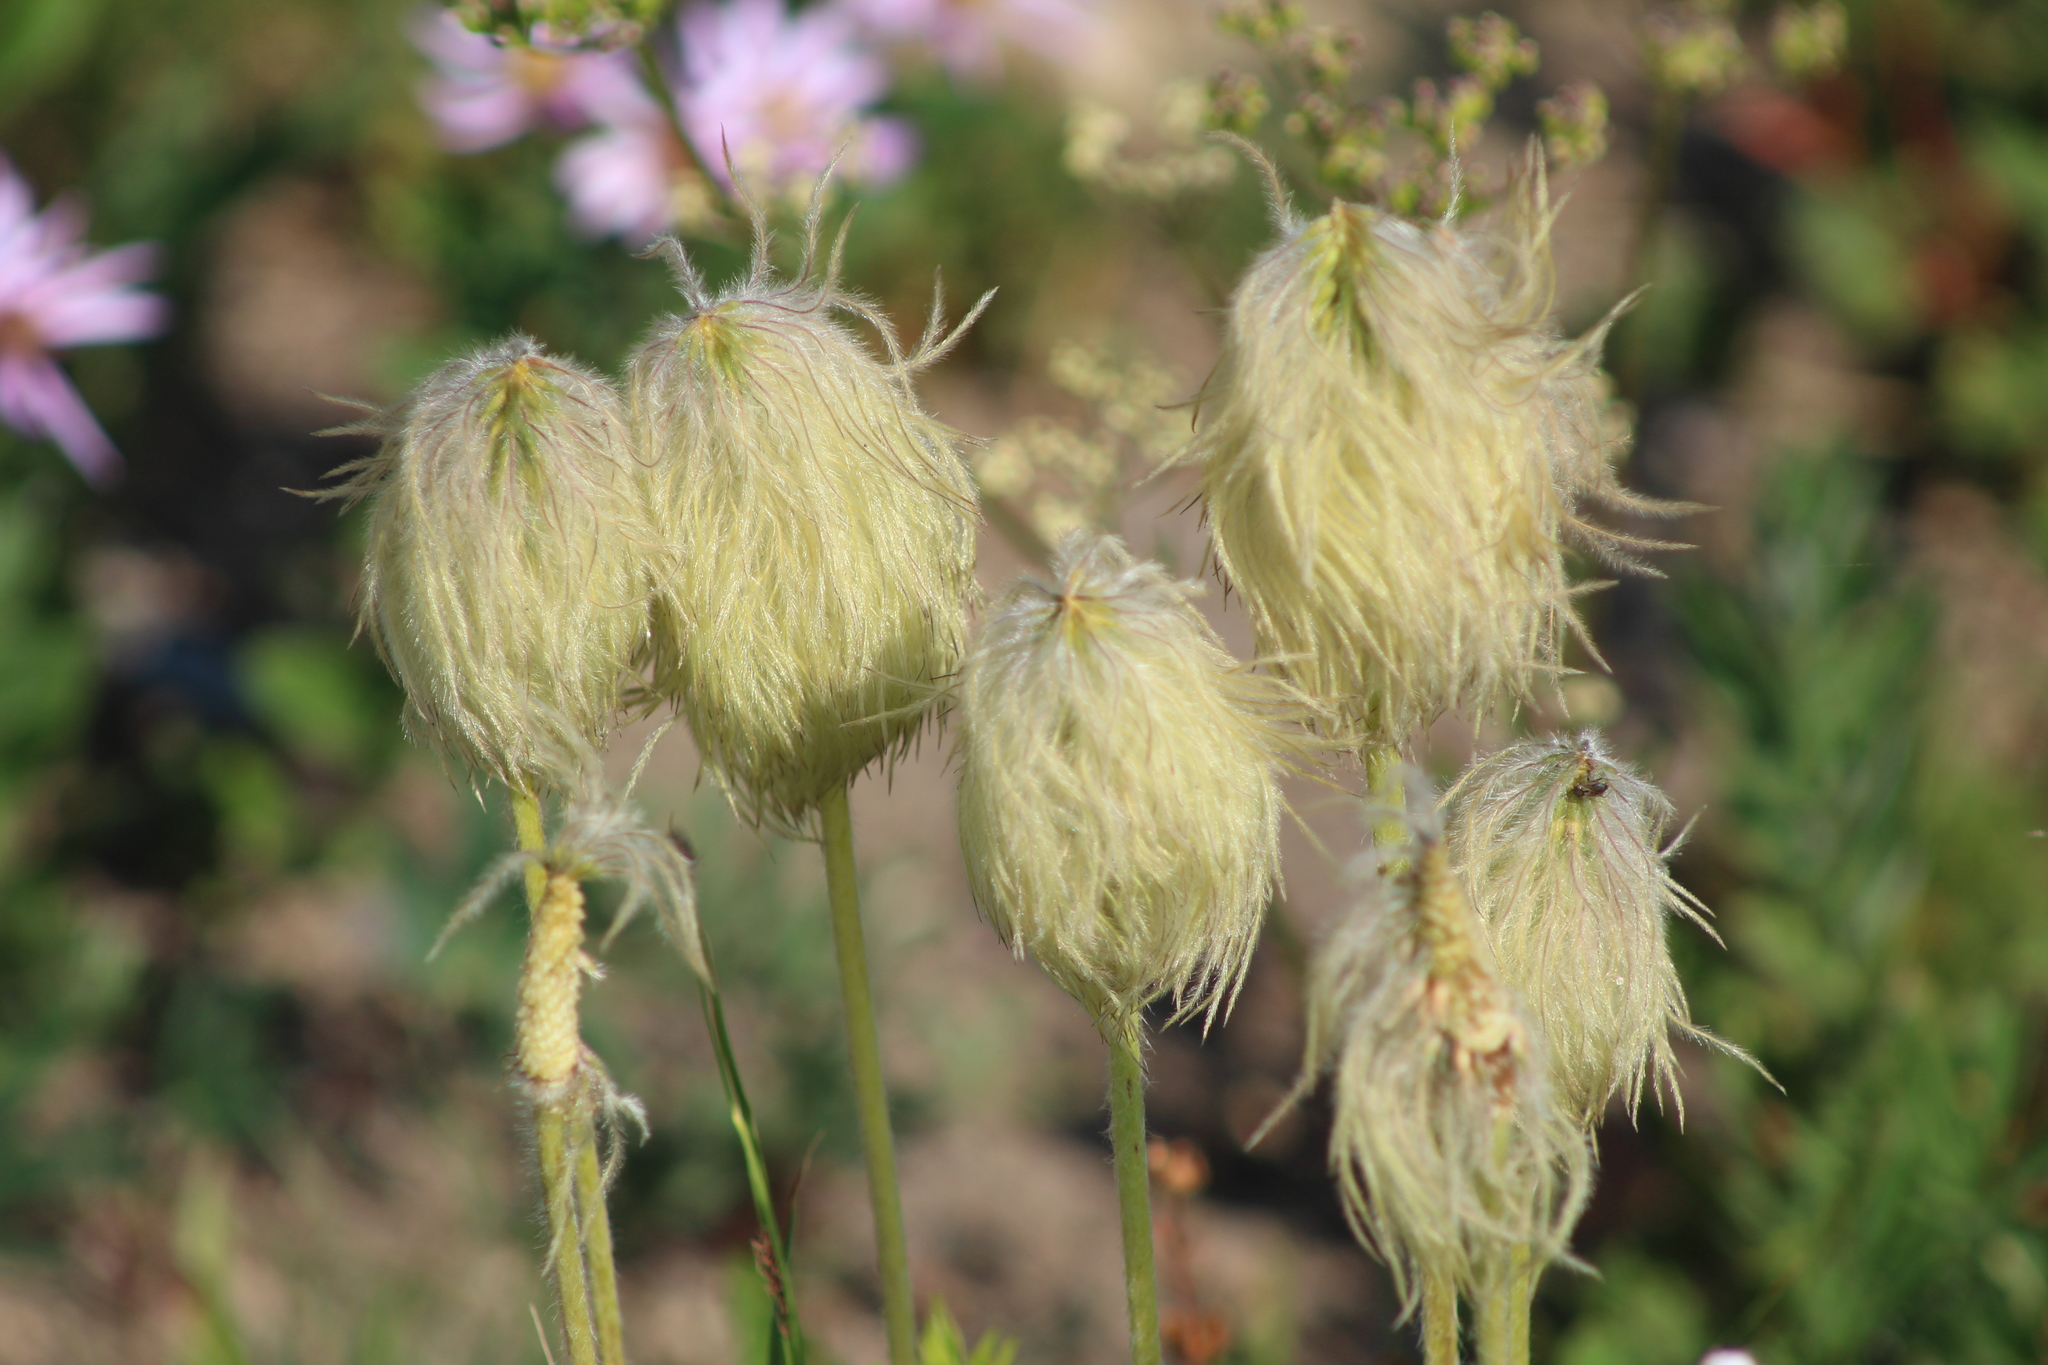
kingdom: Plantae
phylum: Tracheophyta
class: Magnoliopsida
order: Ranunculales
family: Ranunculaceae
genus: Pulsatilla
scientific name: Pulsatilla occidentalis
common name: Mountain pasqueflower
